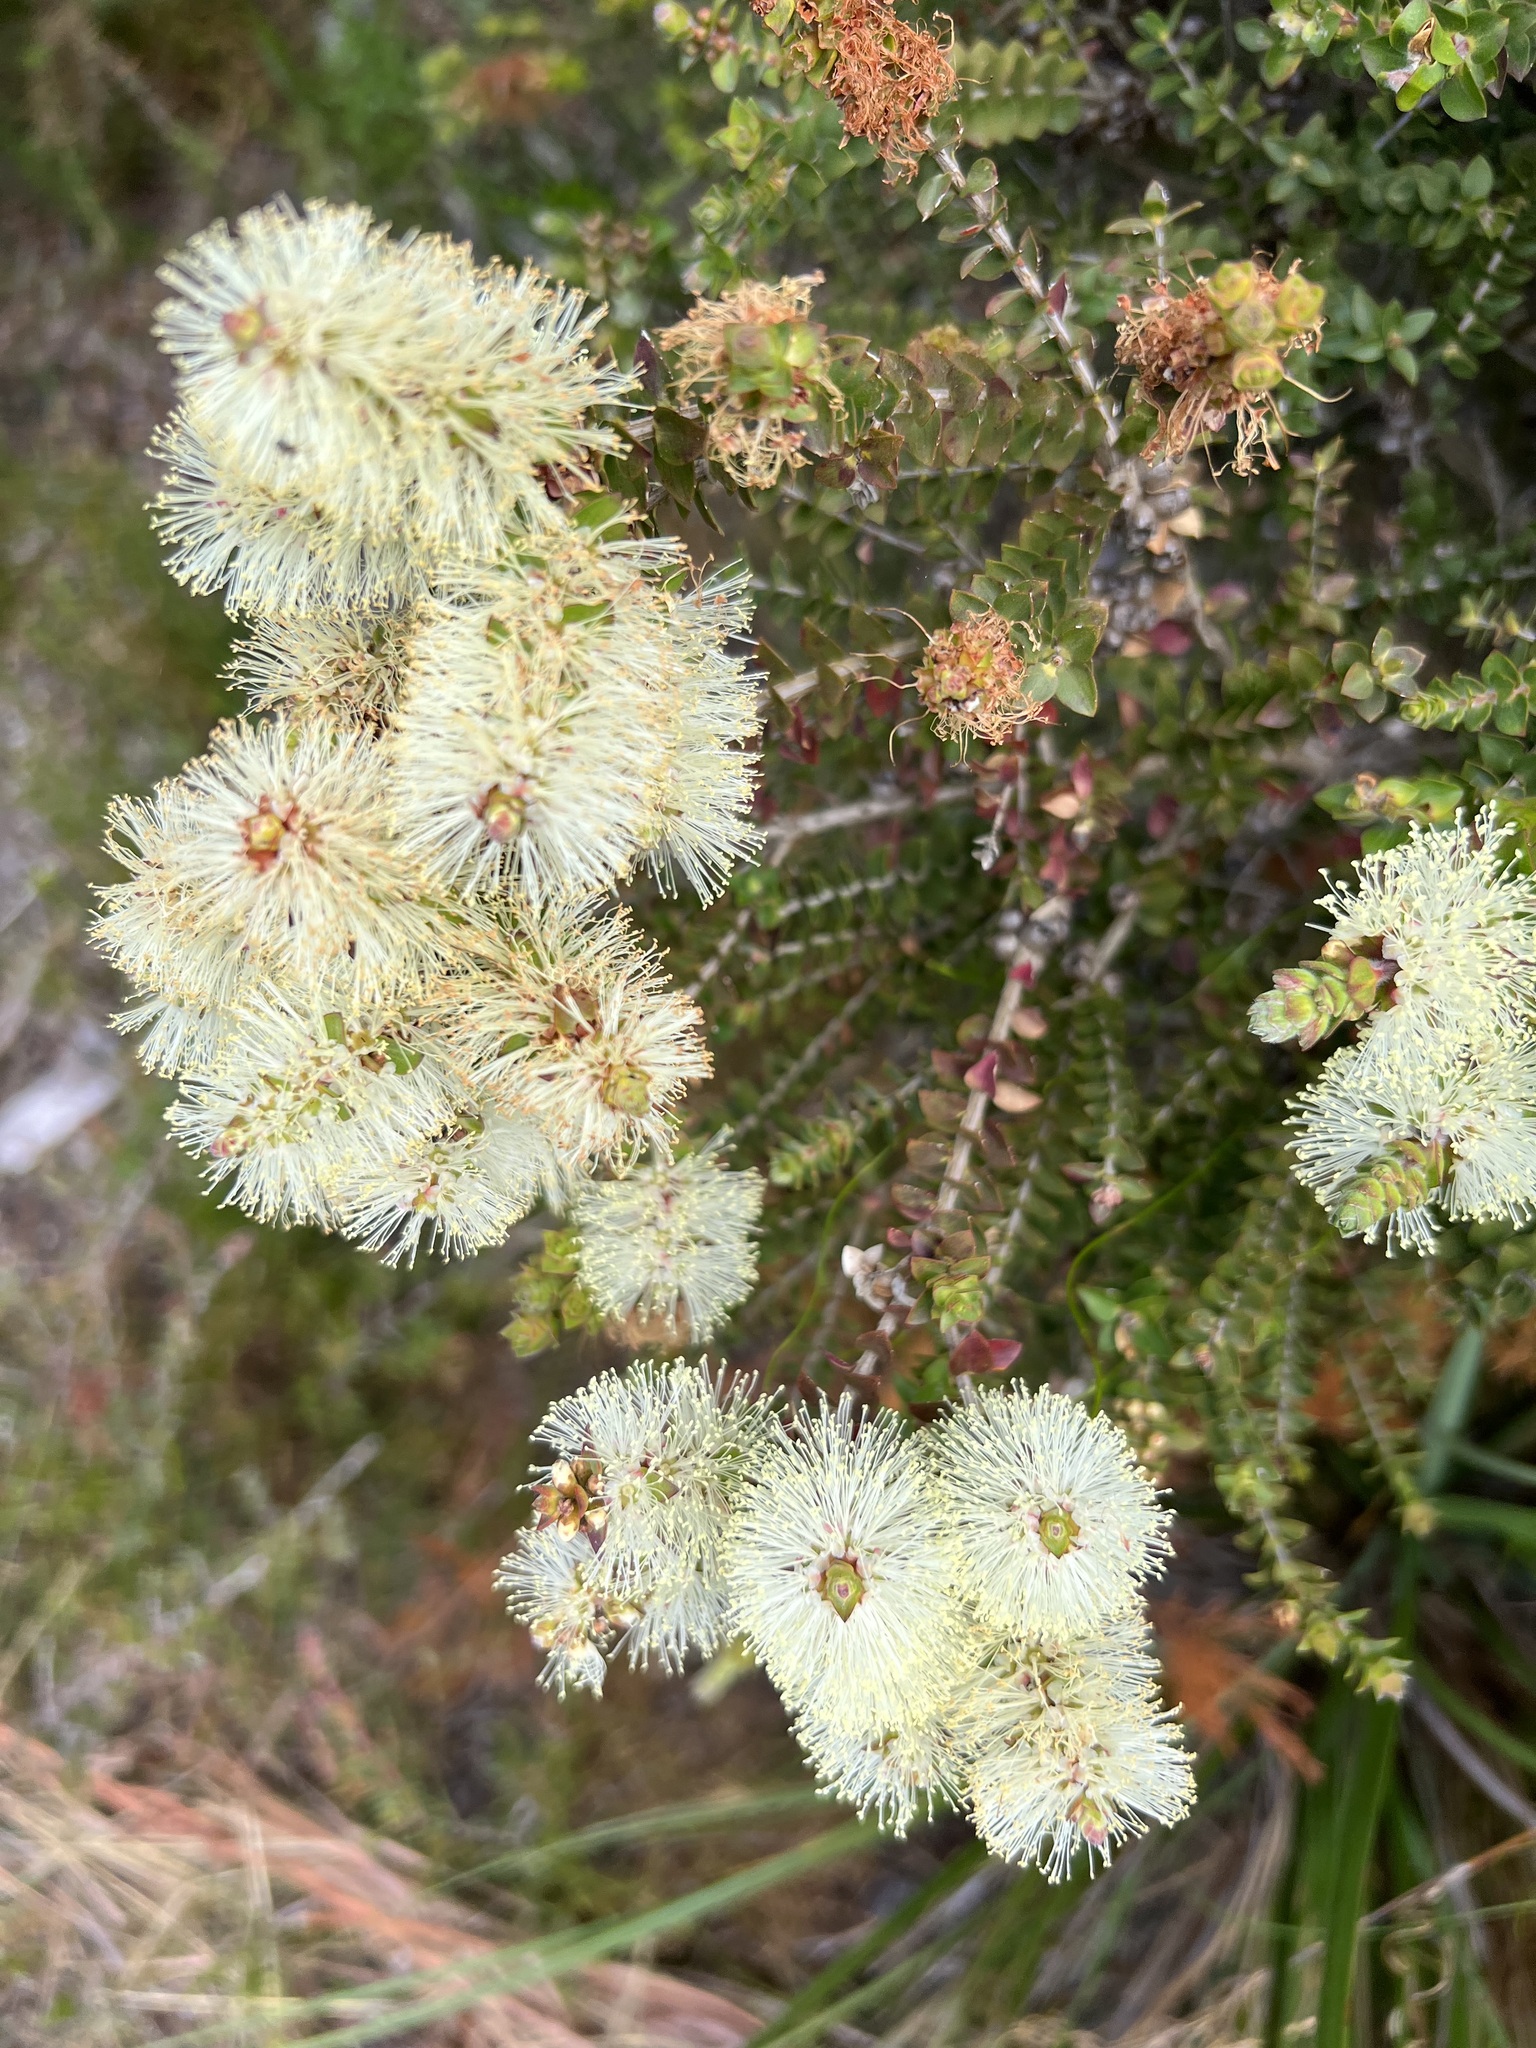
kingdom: Plantae
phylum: Tracheophyta
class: Magnoliopsida
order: Myrtales
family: Myrtaceae
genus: Melaleuca
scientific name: Melaleuca squarrosa
